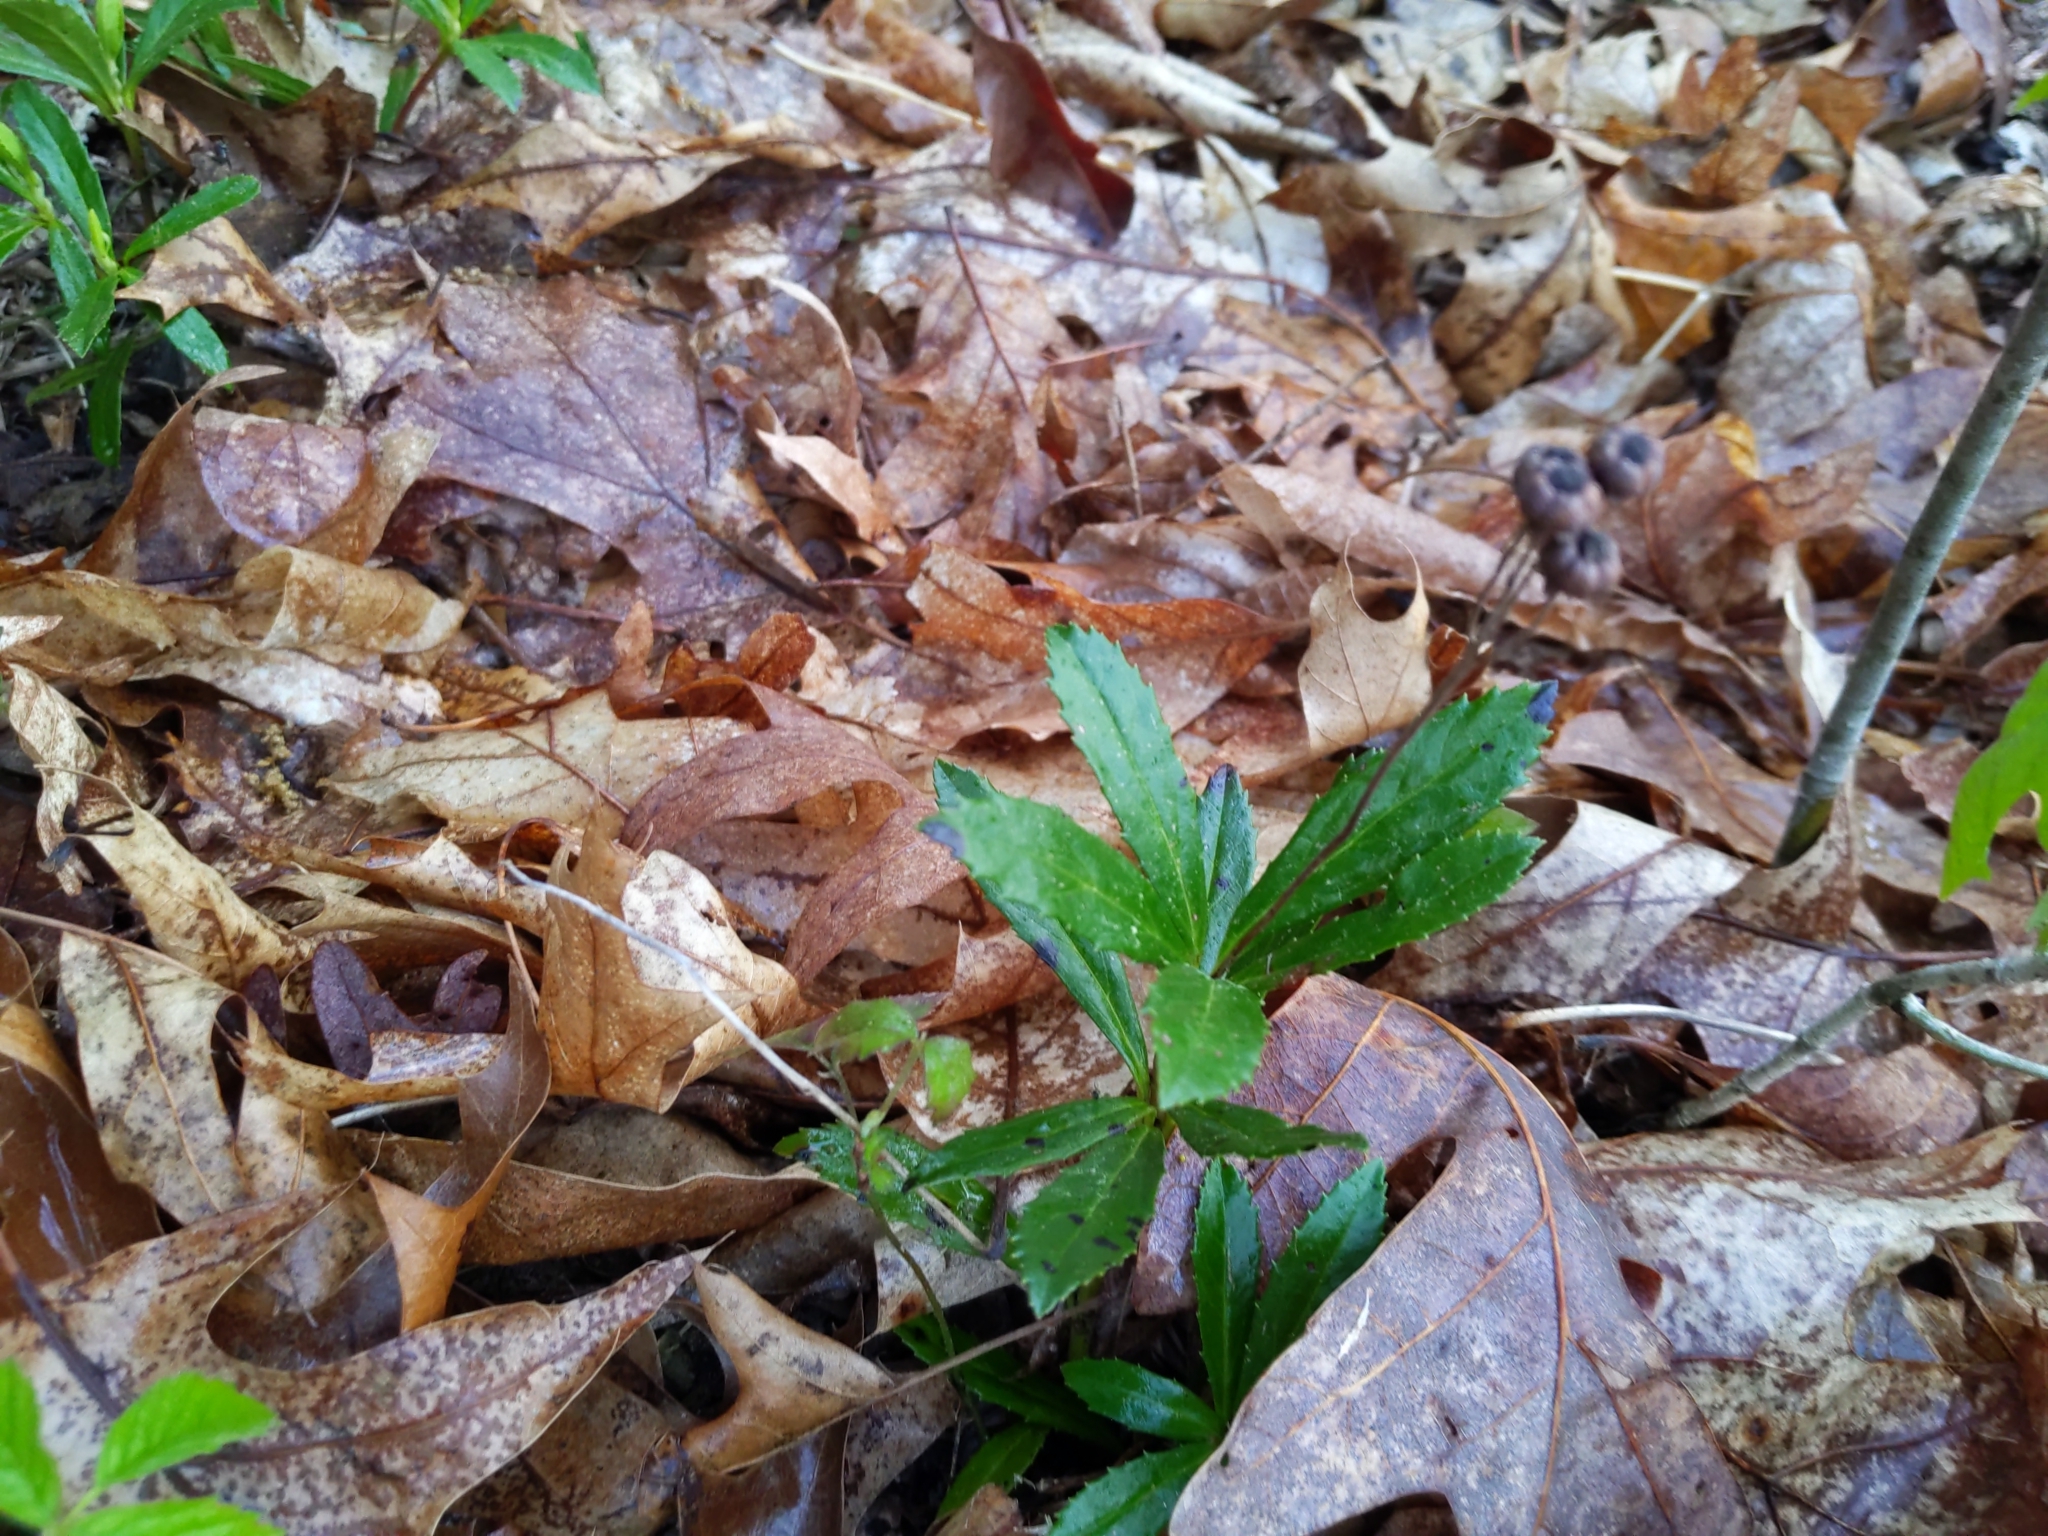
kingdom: Plantae
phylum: Tracheophyta
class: Magnoliopsida
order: Ericales
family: Ericaceae
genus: Chimaphila
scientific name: Chimaphila umbellata
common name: Pipsissewa
